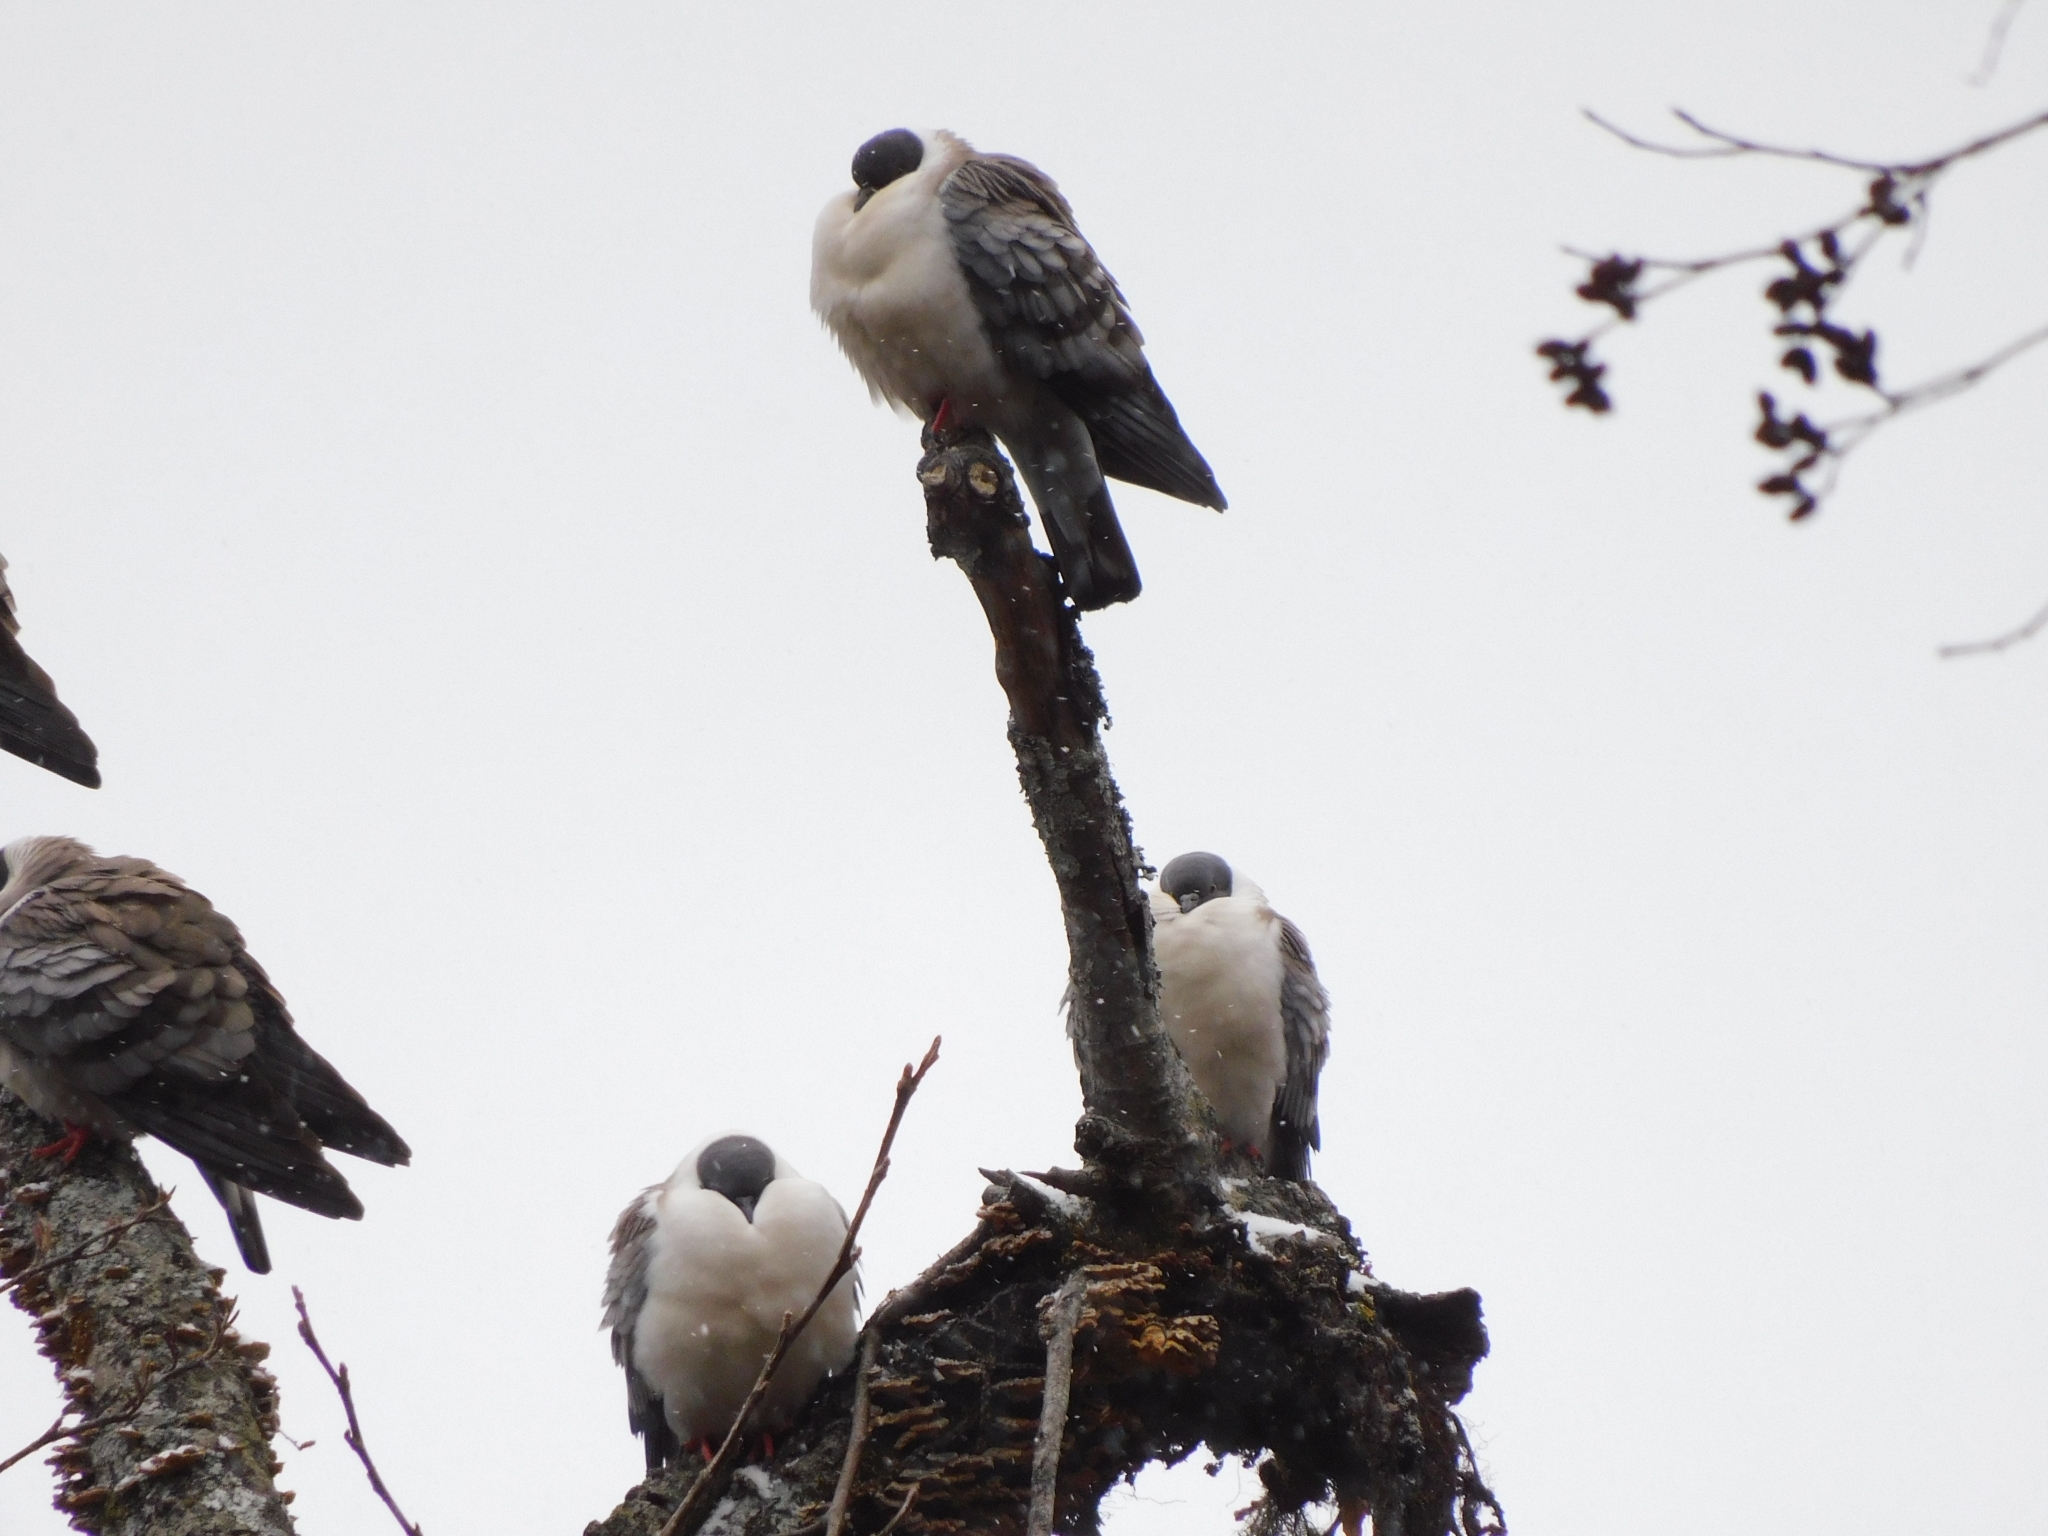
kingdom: Animalia
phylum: Chordata
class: Aves
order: Columbiformes
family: Columbidae
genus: Columba
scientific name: Columba leuconota
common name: Snow pigeon
